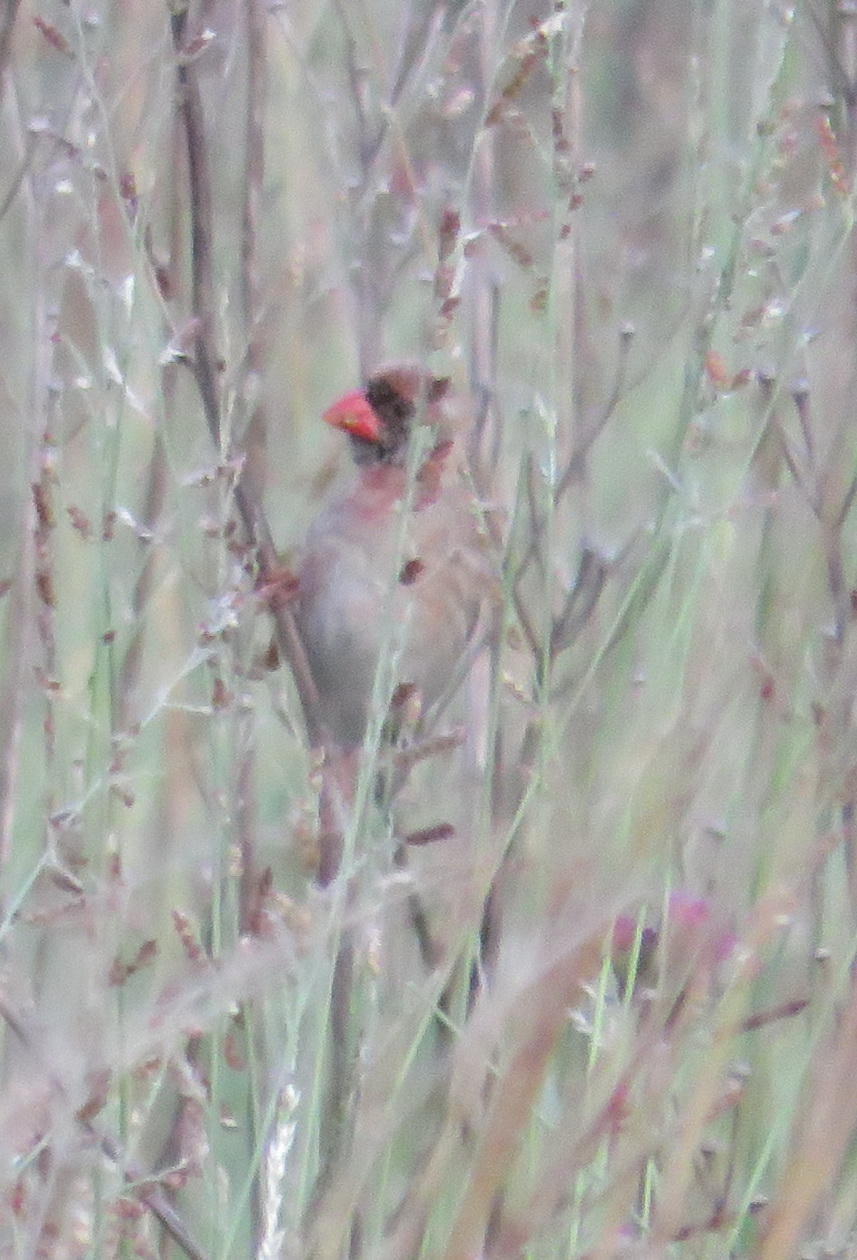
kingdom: Animalia
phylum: Chordata
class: Aves
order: Passeriformes
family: Ploceidae
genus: Quelea
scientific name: Quelea quelea
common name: Red-billed quelea
